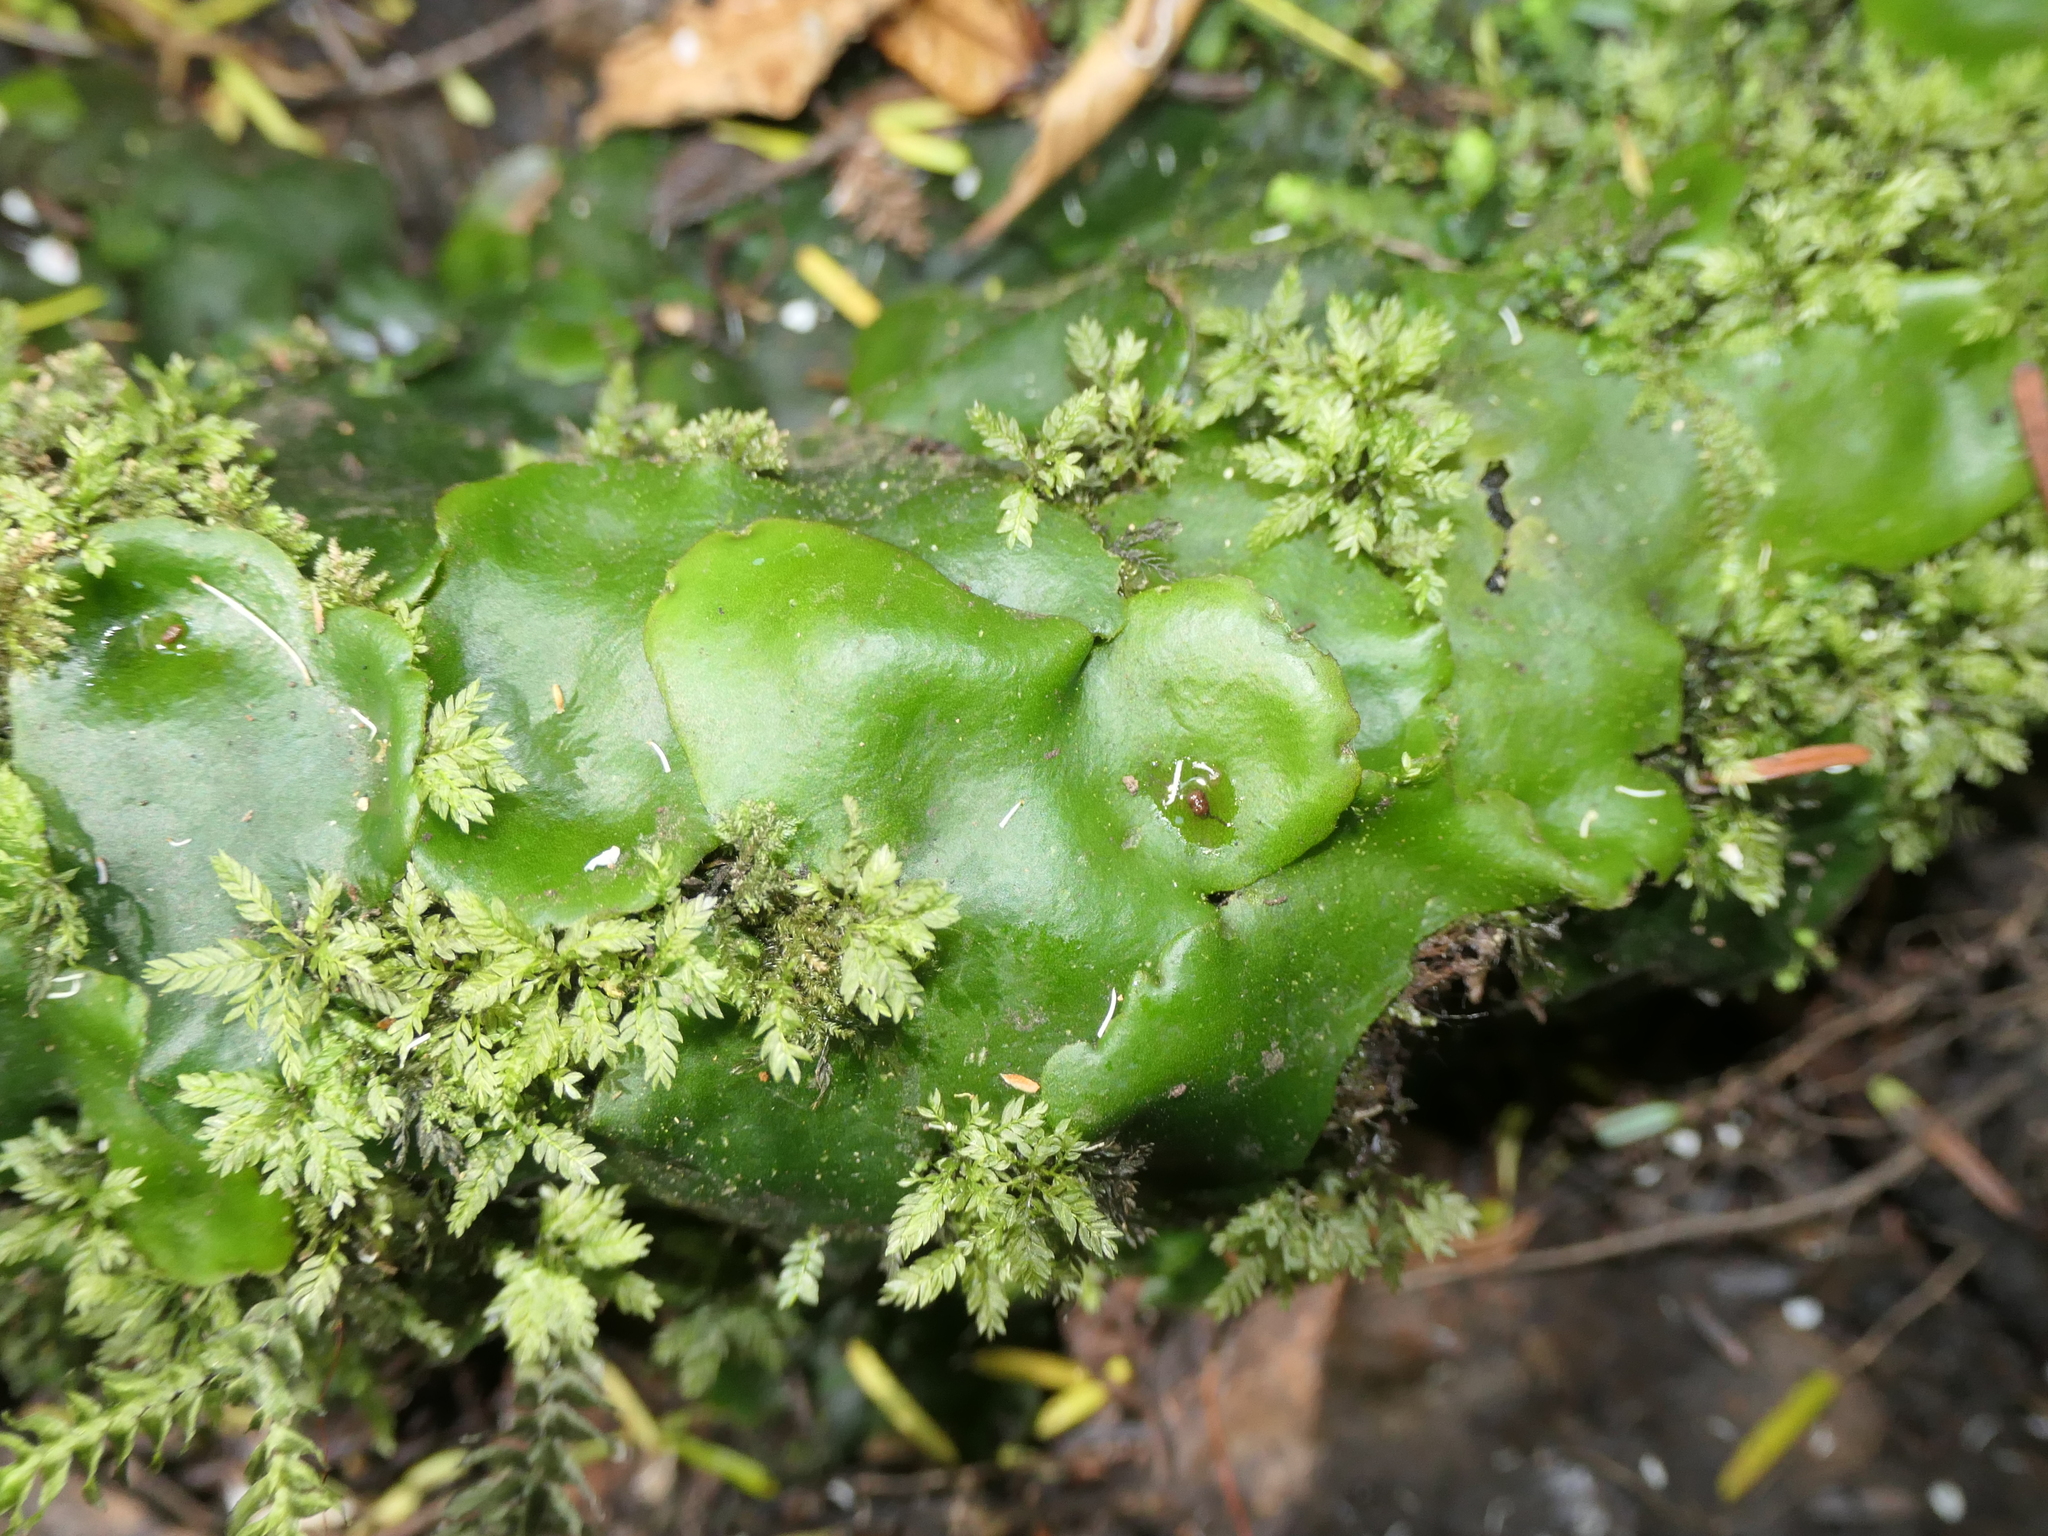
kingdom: Plantae
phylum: Marchantiophyta
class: Marchantiopsida
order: Marchantiales
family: Monocleaceae
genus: Monoclea
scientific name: Monoclea forsteri
